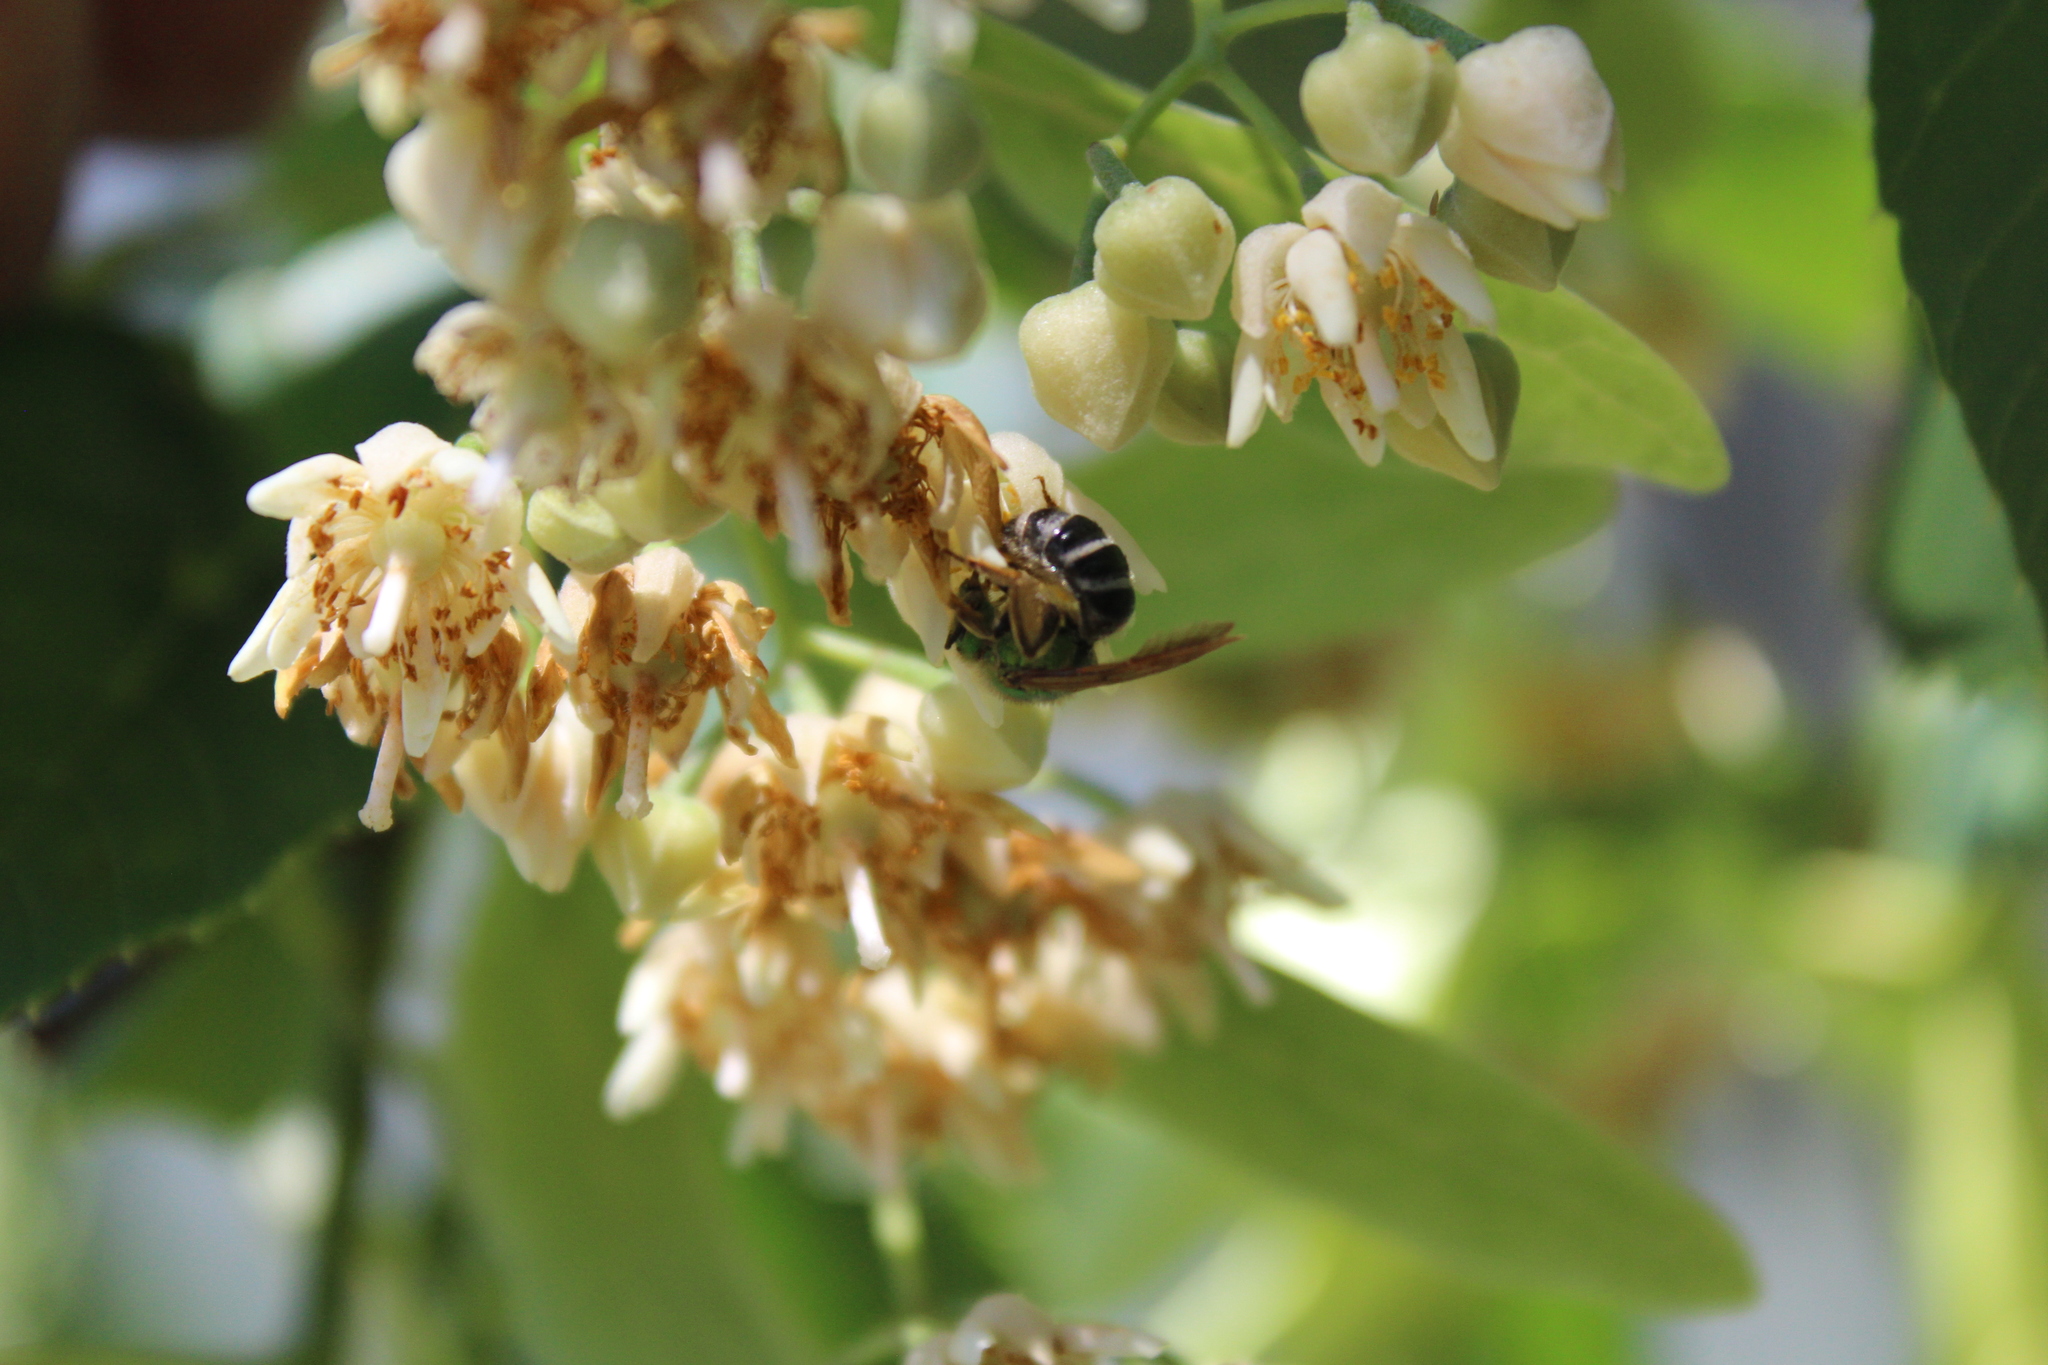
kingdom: Animalia
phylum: Arthropoda
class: Insecta
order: Hymenoptera
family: Halictidae
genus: Agapostemon
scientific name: Agapostemon virescens
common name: Bicolored striped sweat bee
